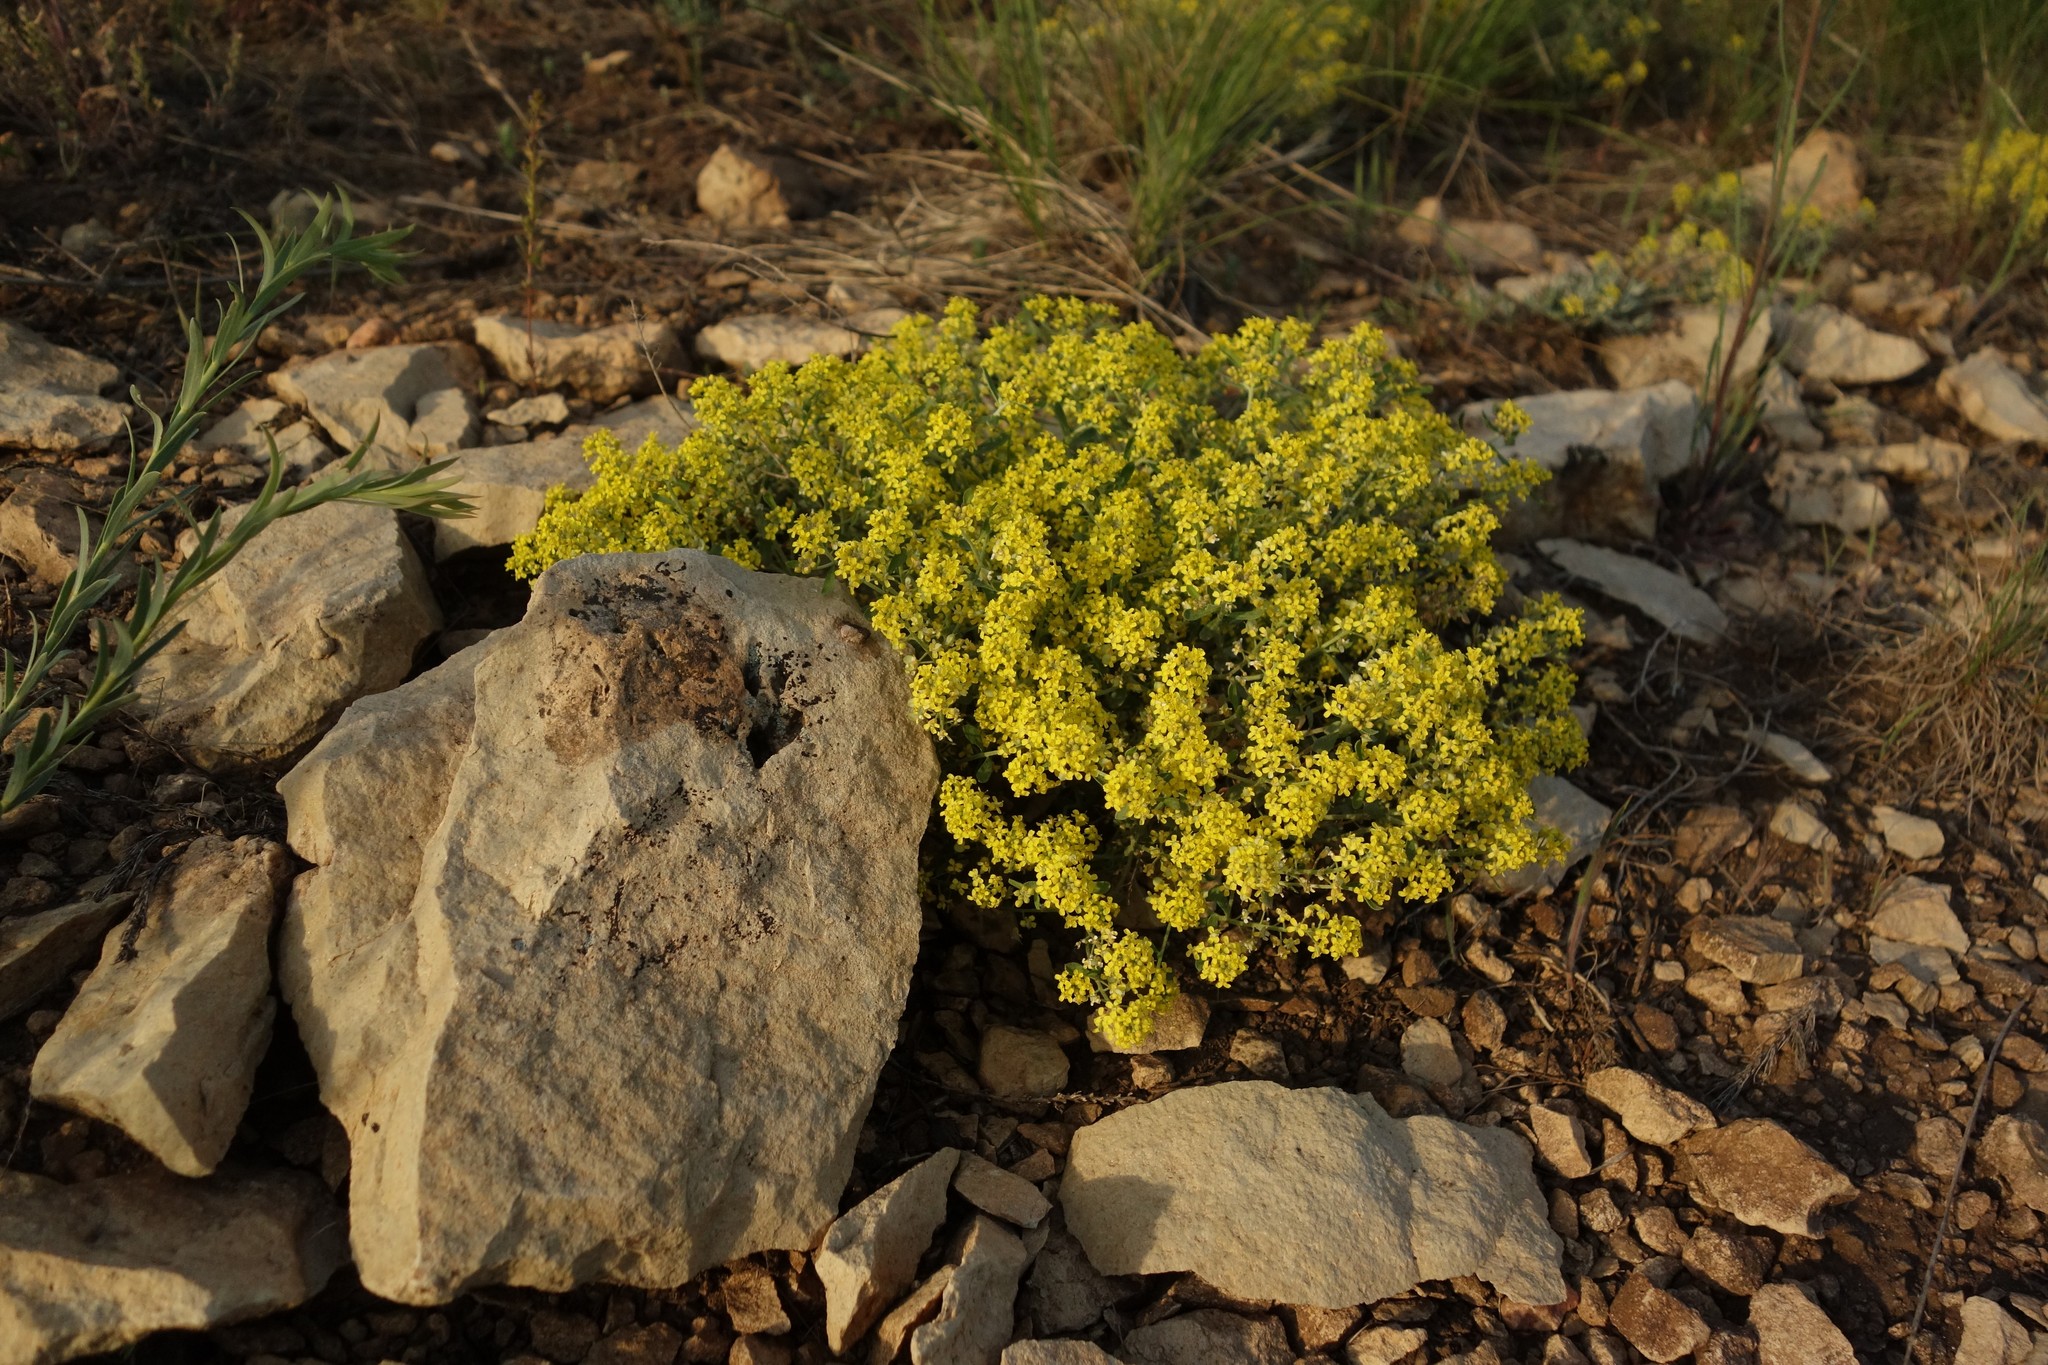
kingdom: Plantae
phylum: Tracheophyta
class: Magnoliopsida
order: Brassicales
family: Brassicaceae
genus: Odontarrhena
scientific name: Odontarrhena tortuosa
